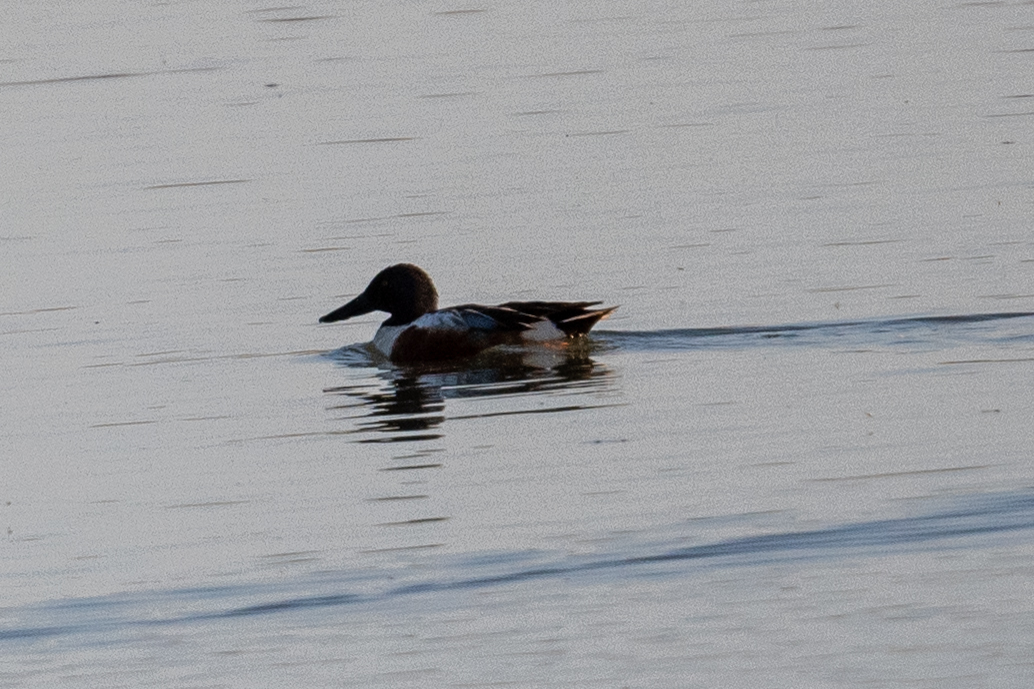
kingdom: Animalia
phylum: Chordata
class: Aves
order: Anseriformes
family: Anatidae
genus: Spatula
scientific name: Spatula clypeata
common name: Northern shoveler
